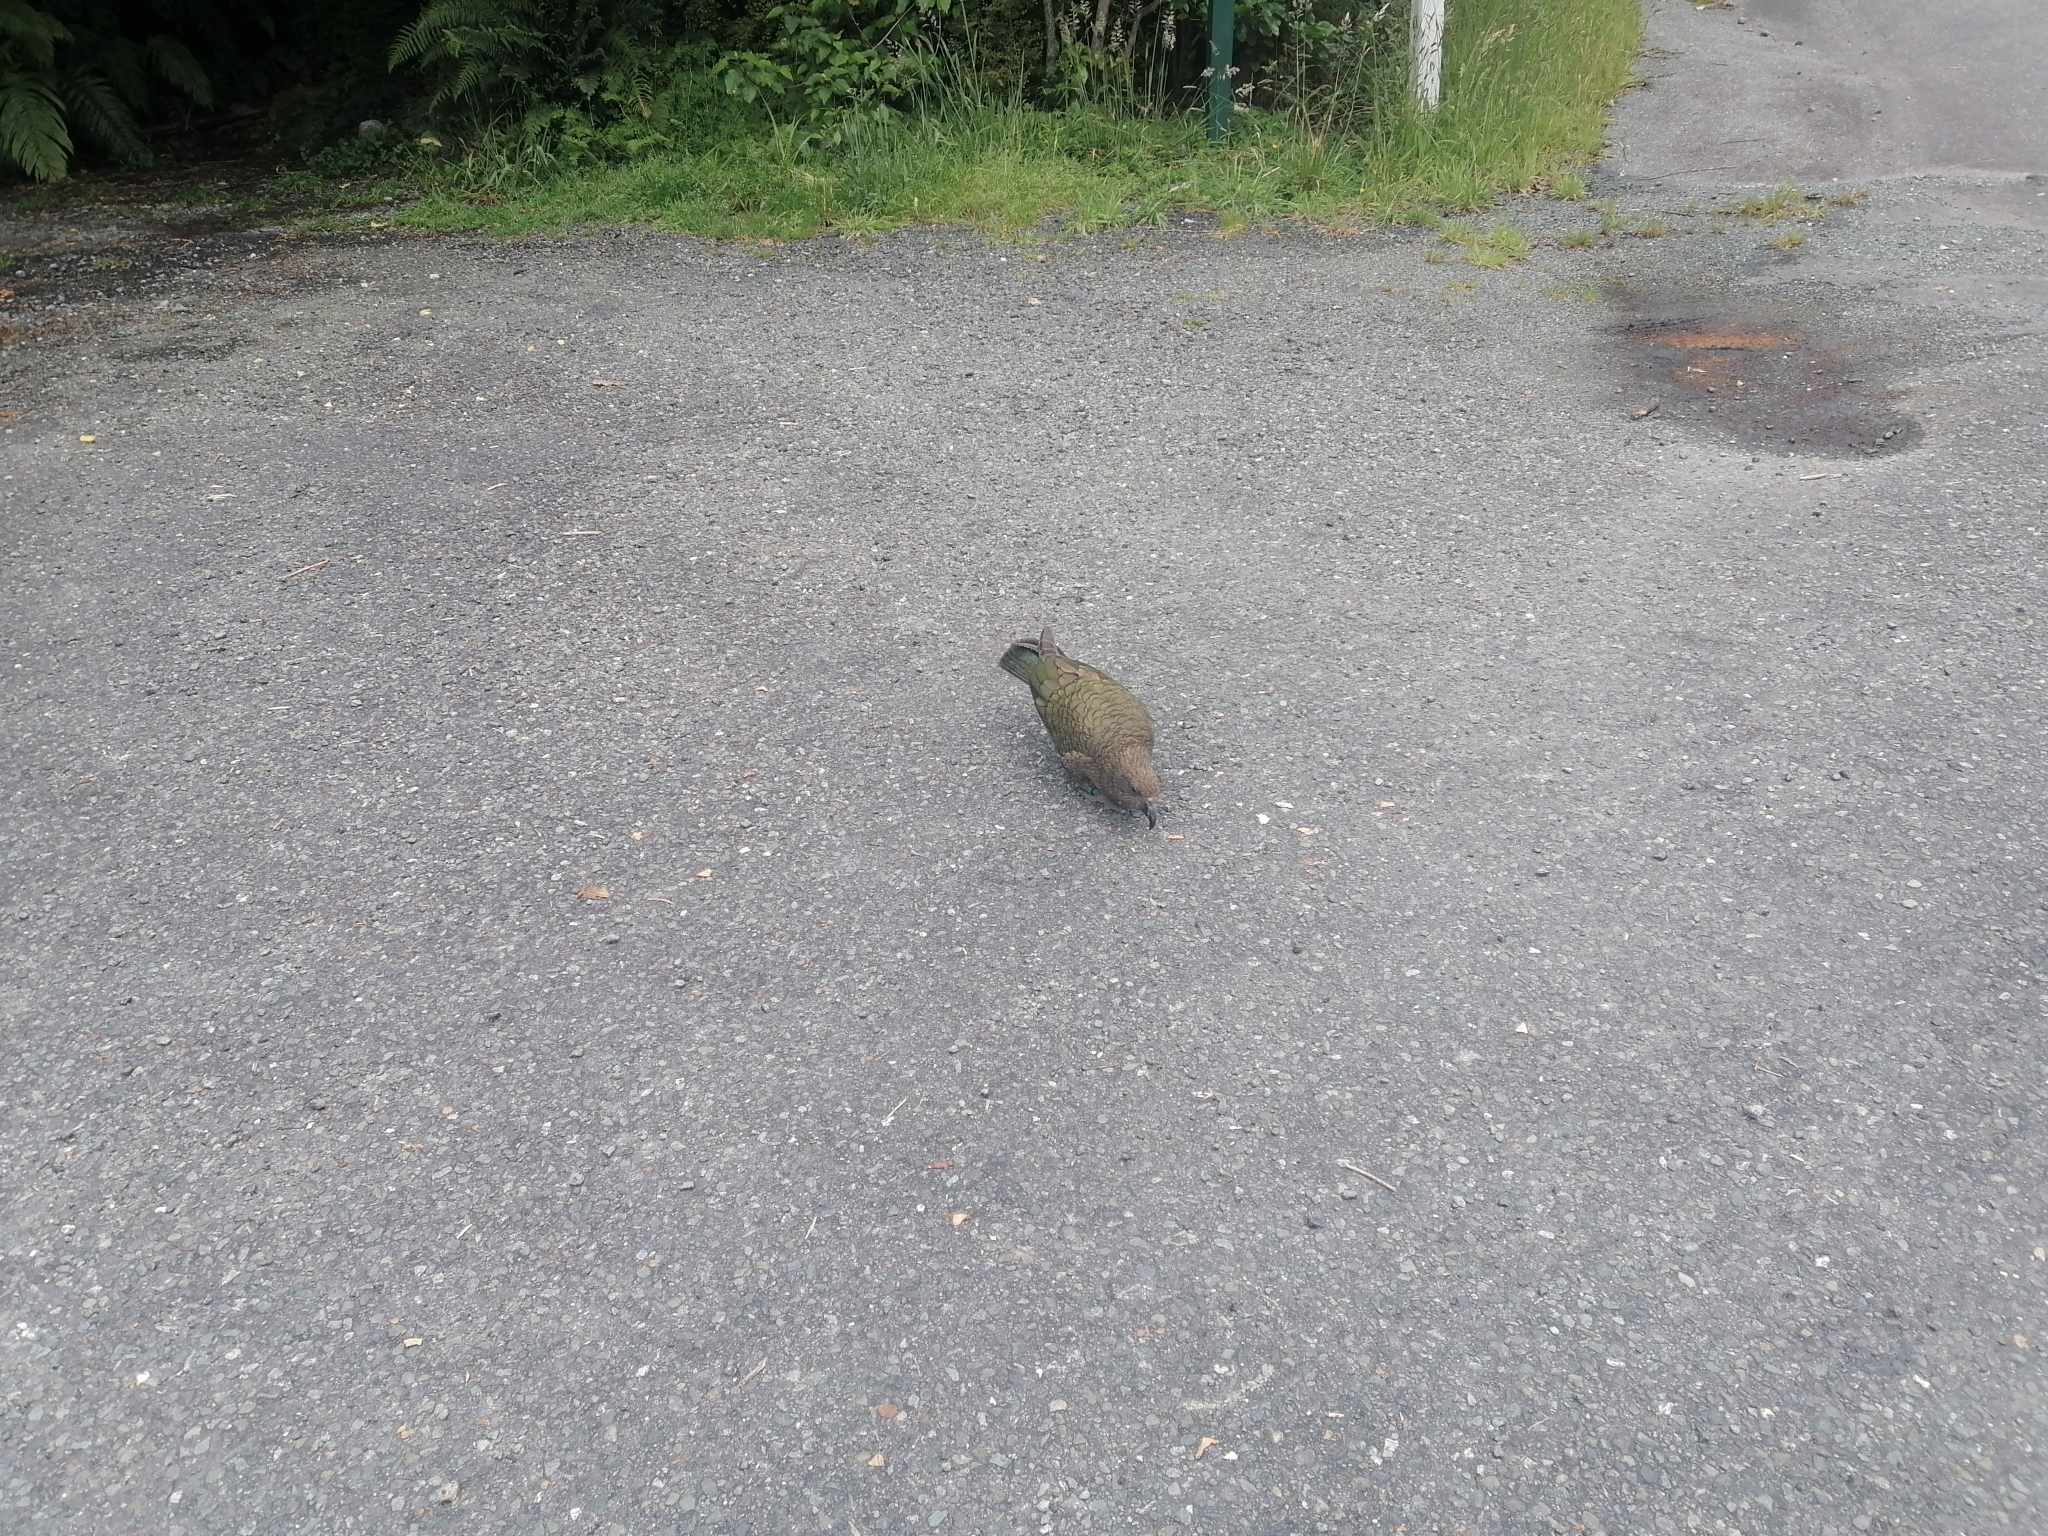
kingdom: Animalia
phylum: Chordata
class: Aves
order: Psittaciformes
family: Psittacidae
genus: Nestor
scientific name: Nestor notabilis
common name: Kea
